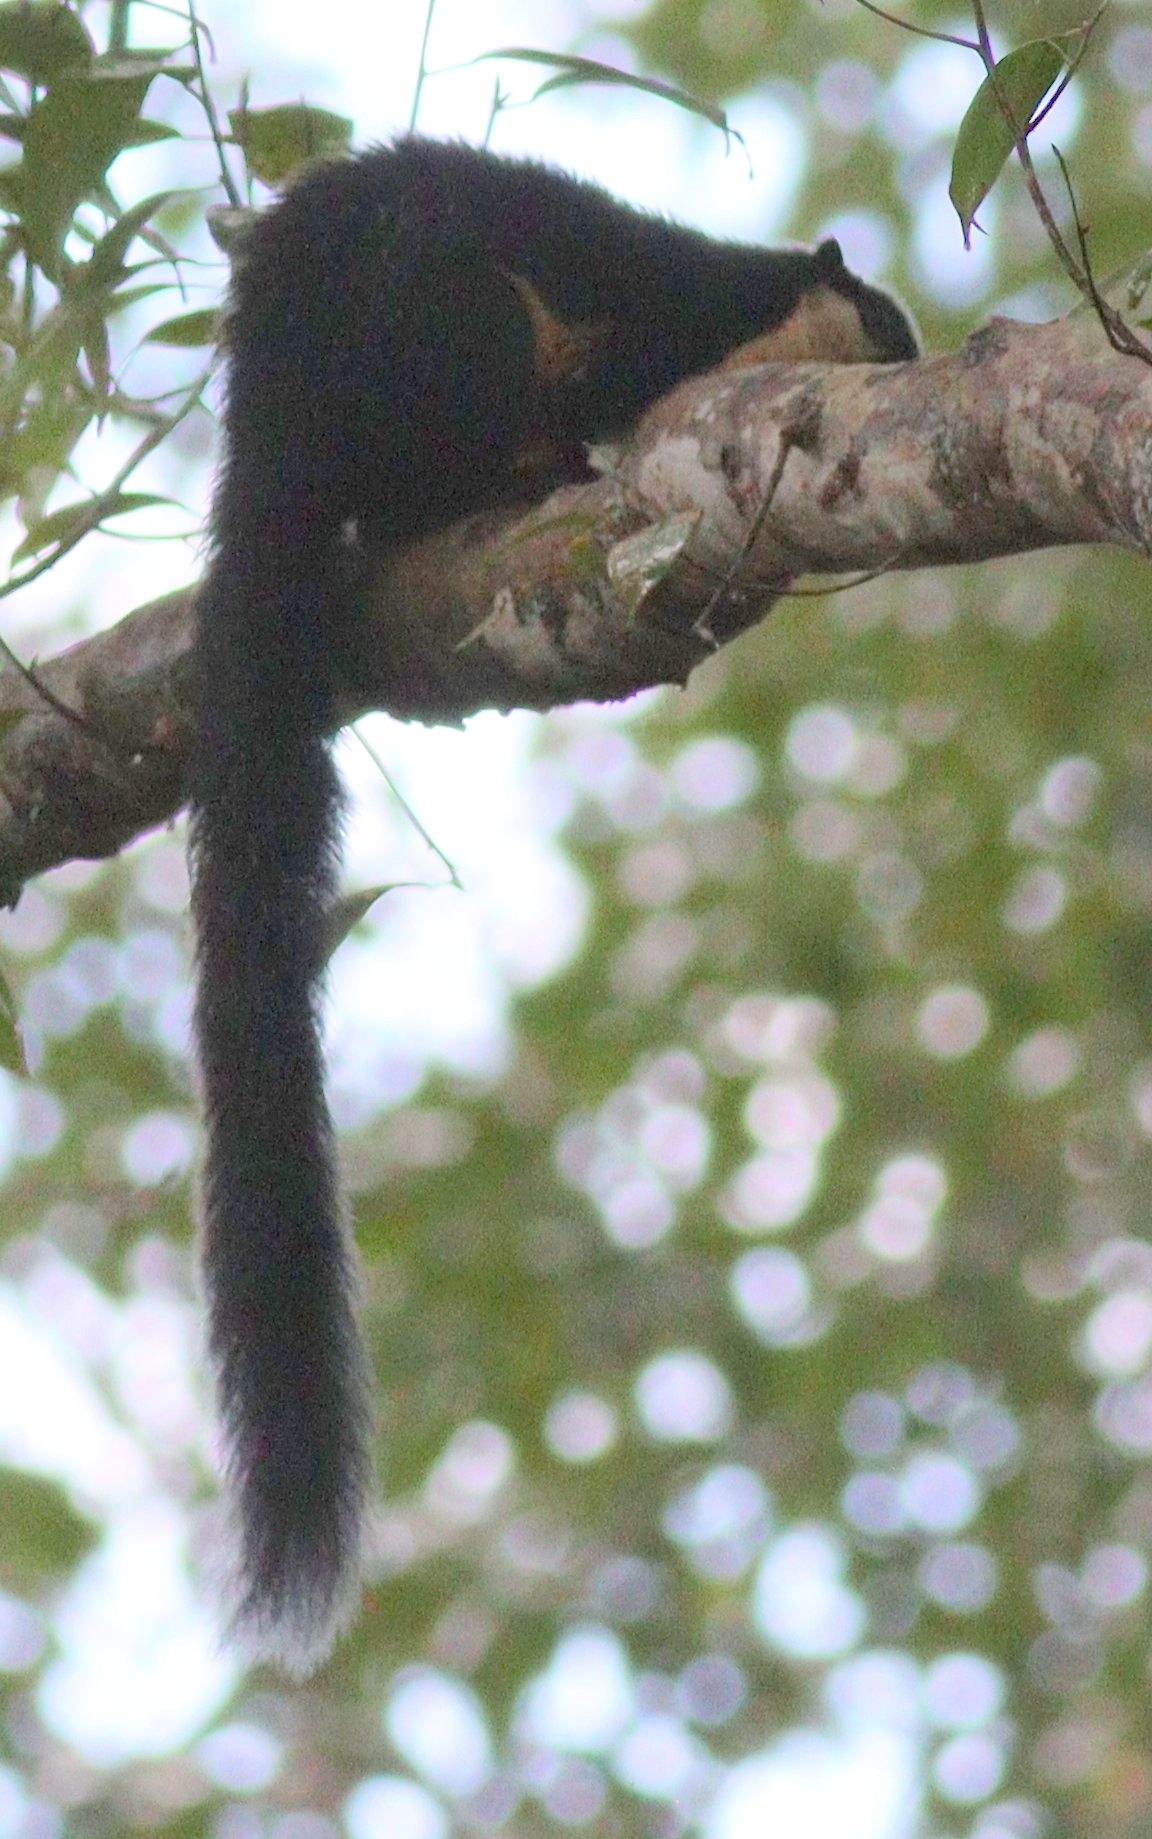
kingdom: Animalia
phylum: Chordata
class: Mammalia
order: Rodentia
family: Sciuridae
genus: Ratufa
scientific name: Ratufa bicolor
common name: Black giant squirrel
